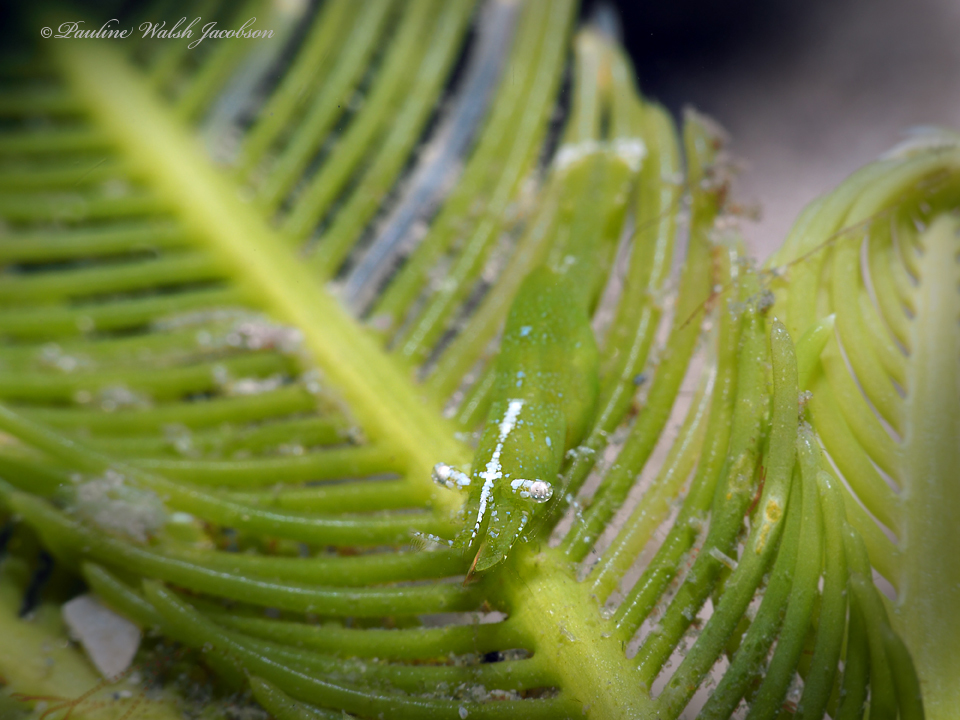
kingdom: Animalia
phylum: Arthropoda
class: Malacostraca
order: Decapoda
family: Hippolytidae
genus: Hippolyte
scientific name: Hippolyte zostericola
